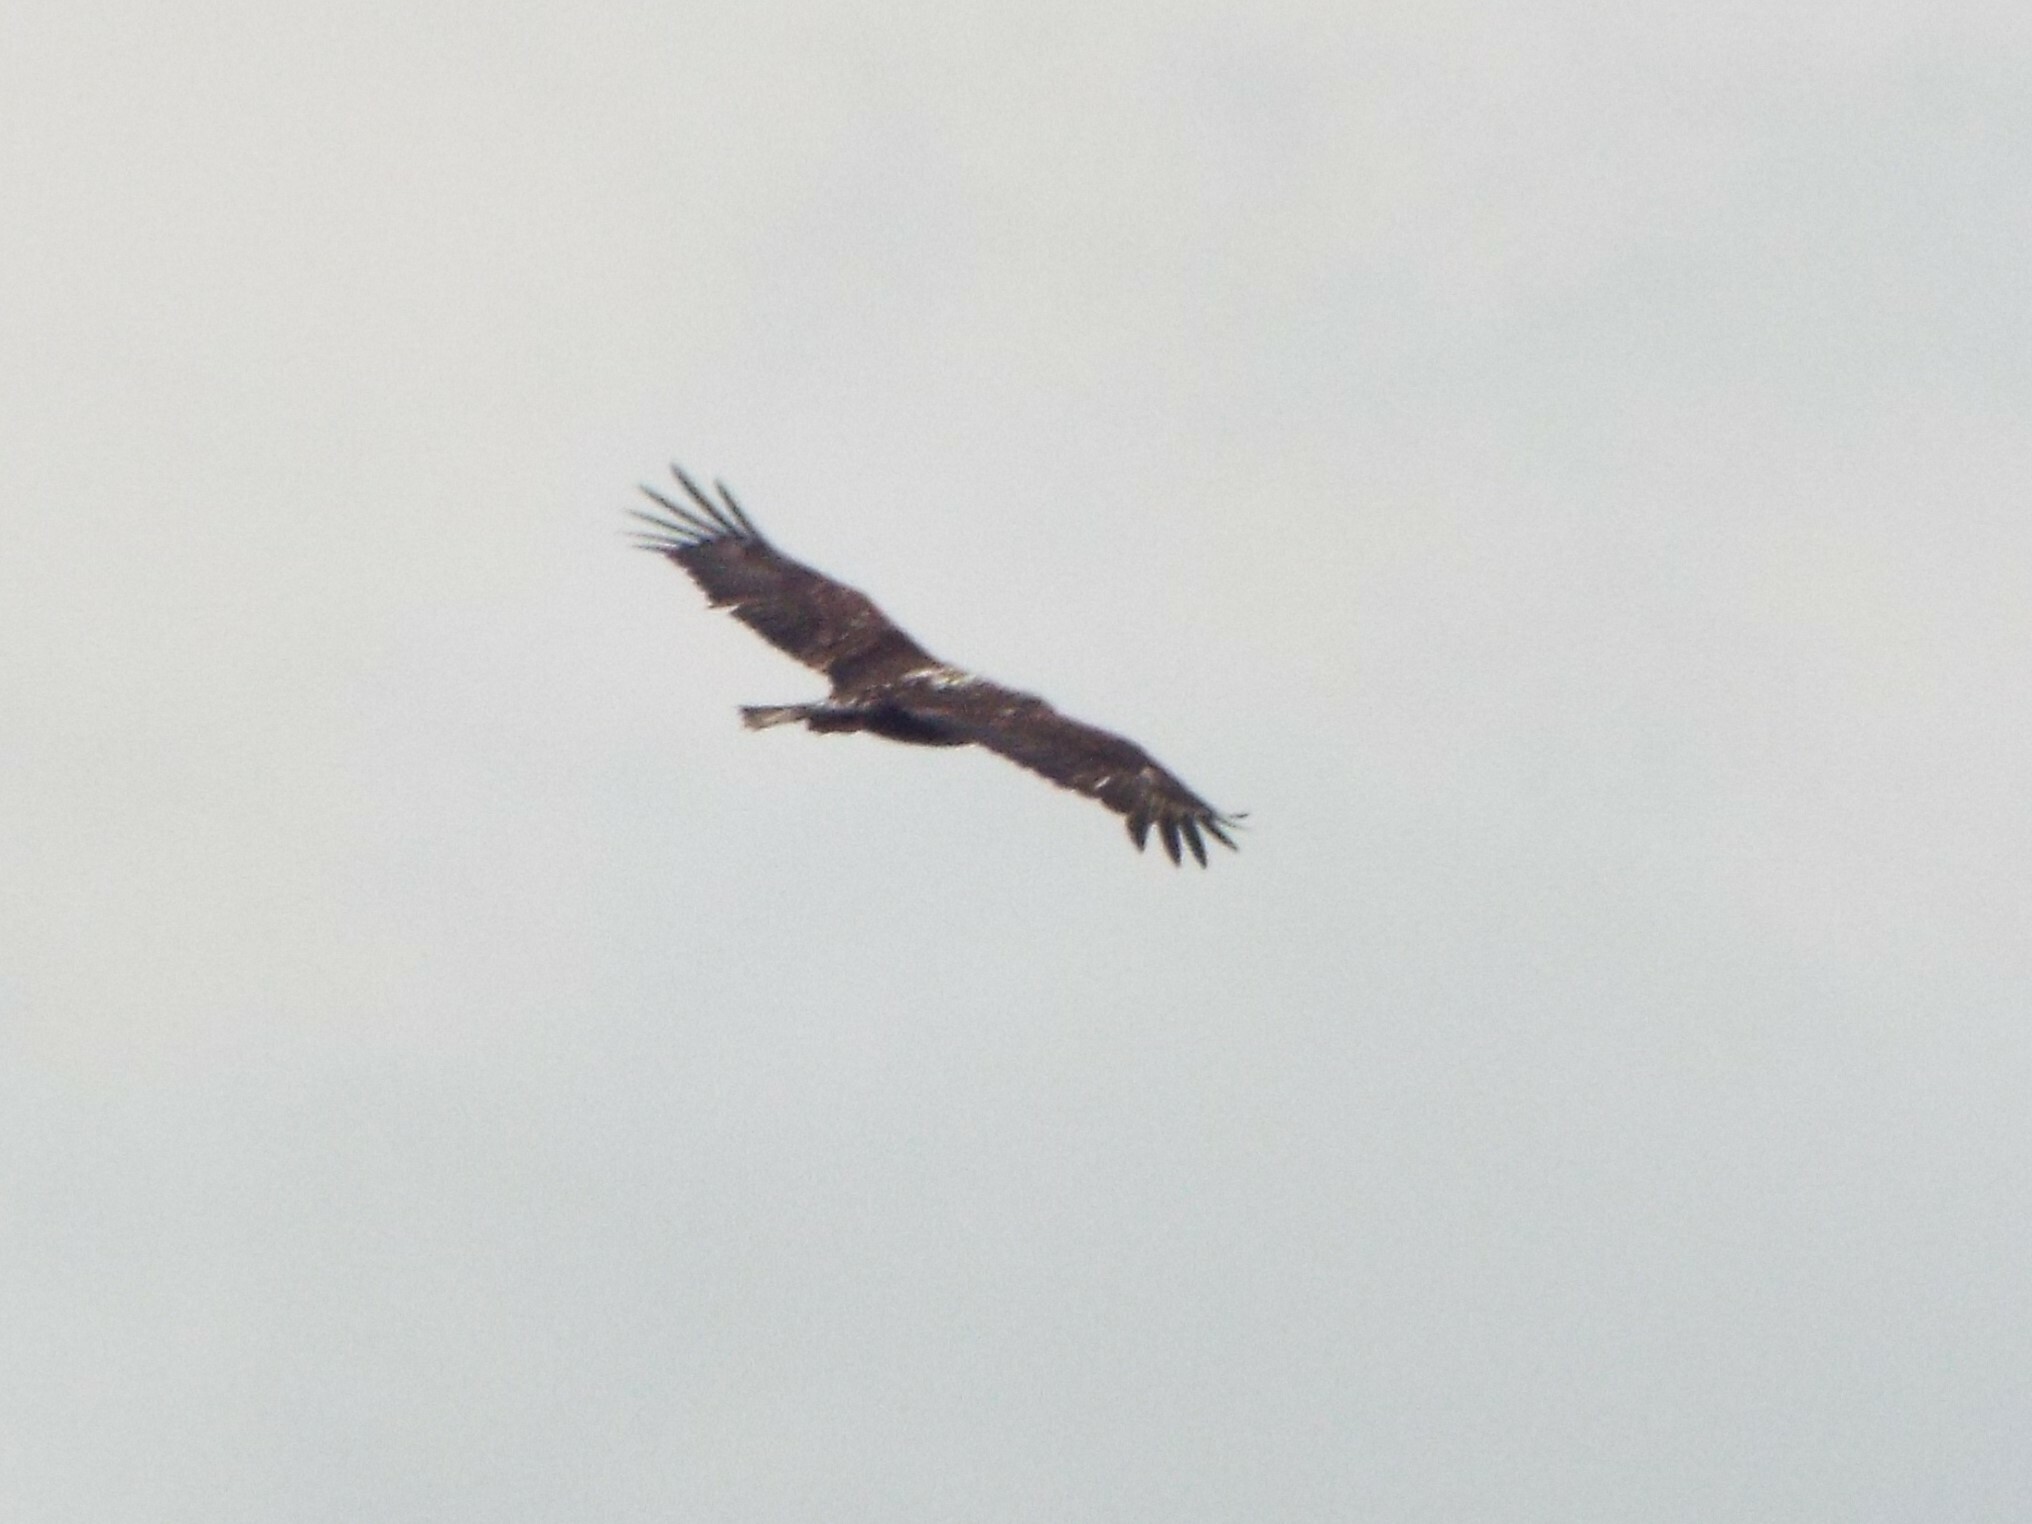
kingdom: Animalia
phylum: Chordata
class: Aves
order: Accipitriformes
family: Accipitridae
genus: Haliaeetus
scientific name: Haliaeetus leucocephalus
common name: Bald eagle
